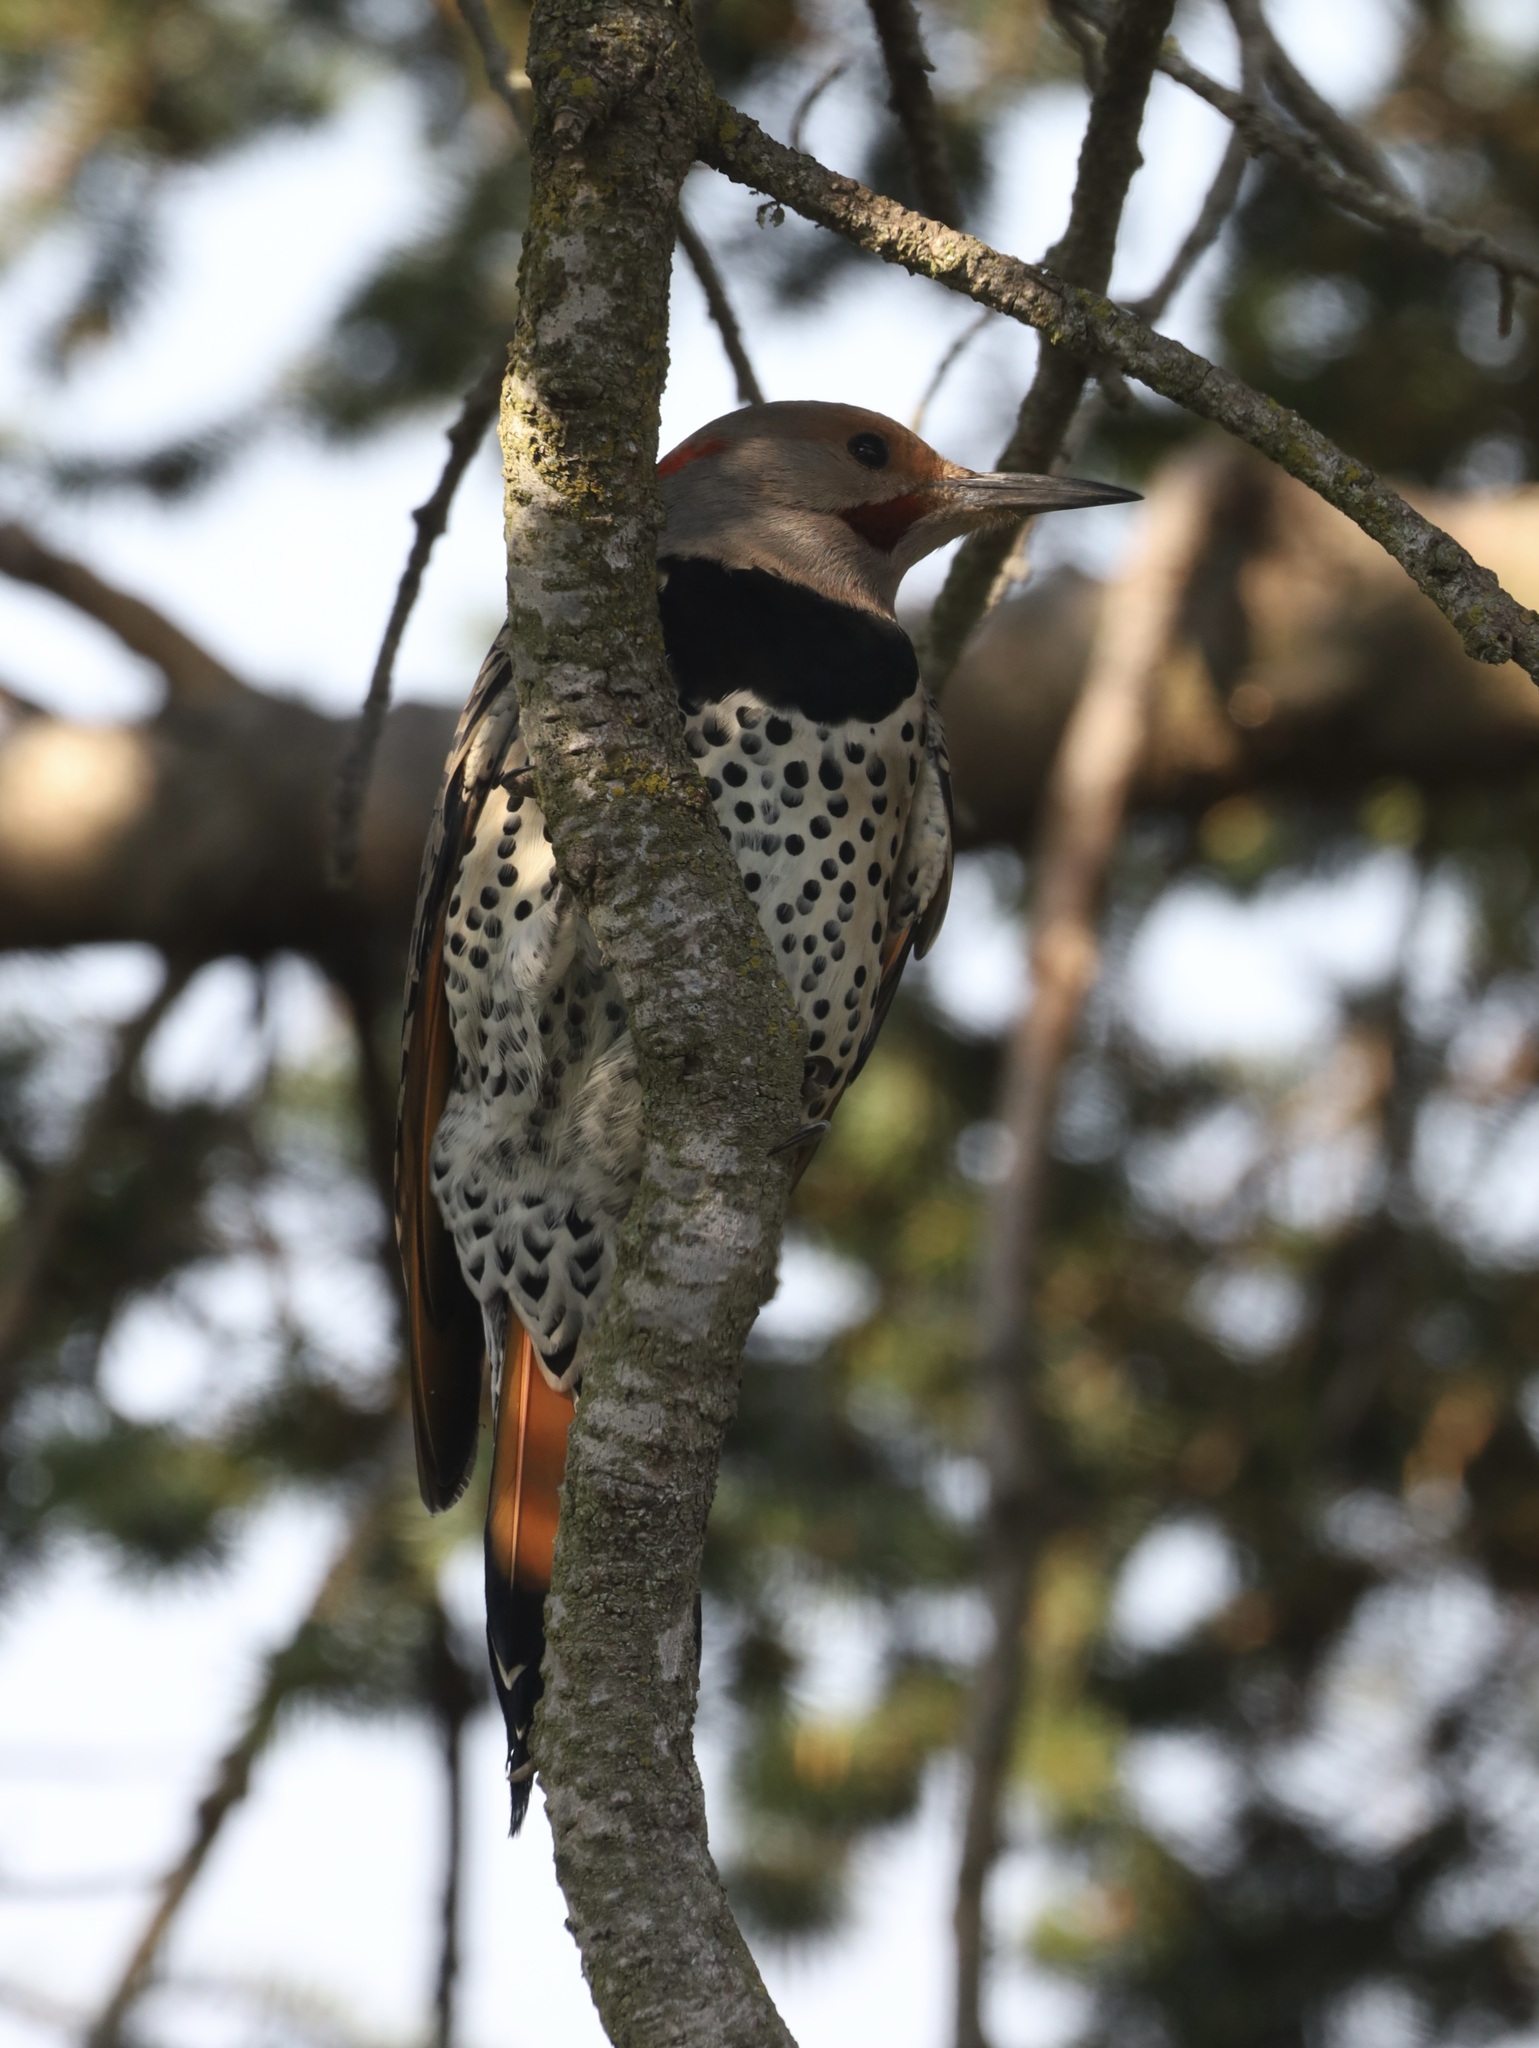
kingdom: Animalia
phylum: Chordata
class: Aves
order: Piciformes
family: Picidae
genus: Colaptes
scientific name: Colaptes
